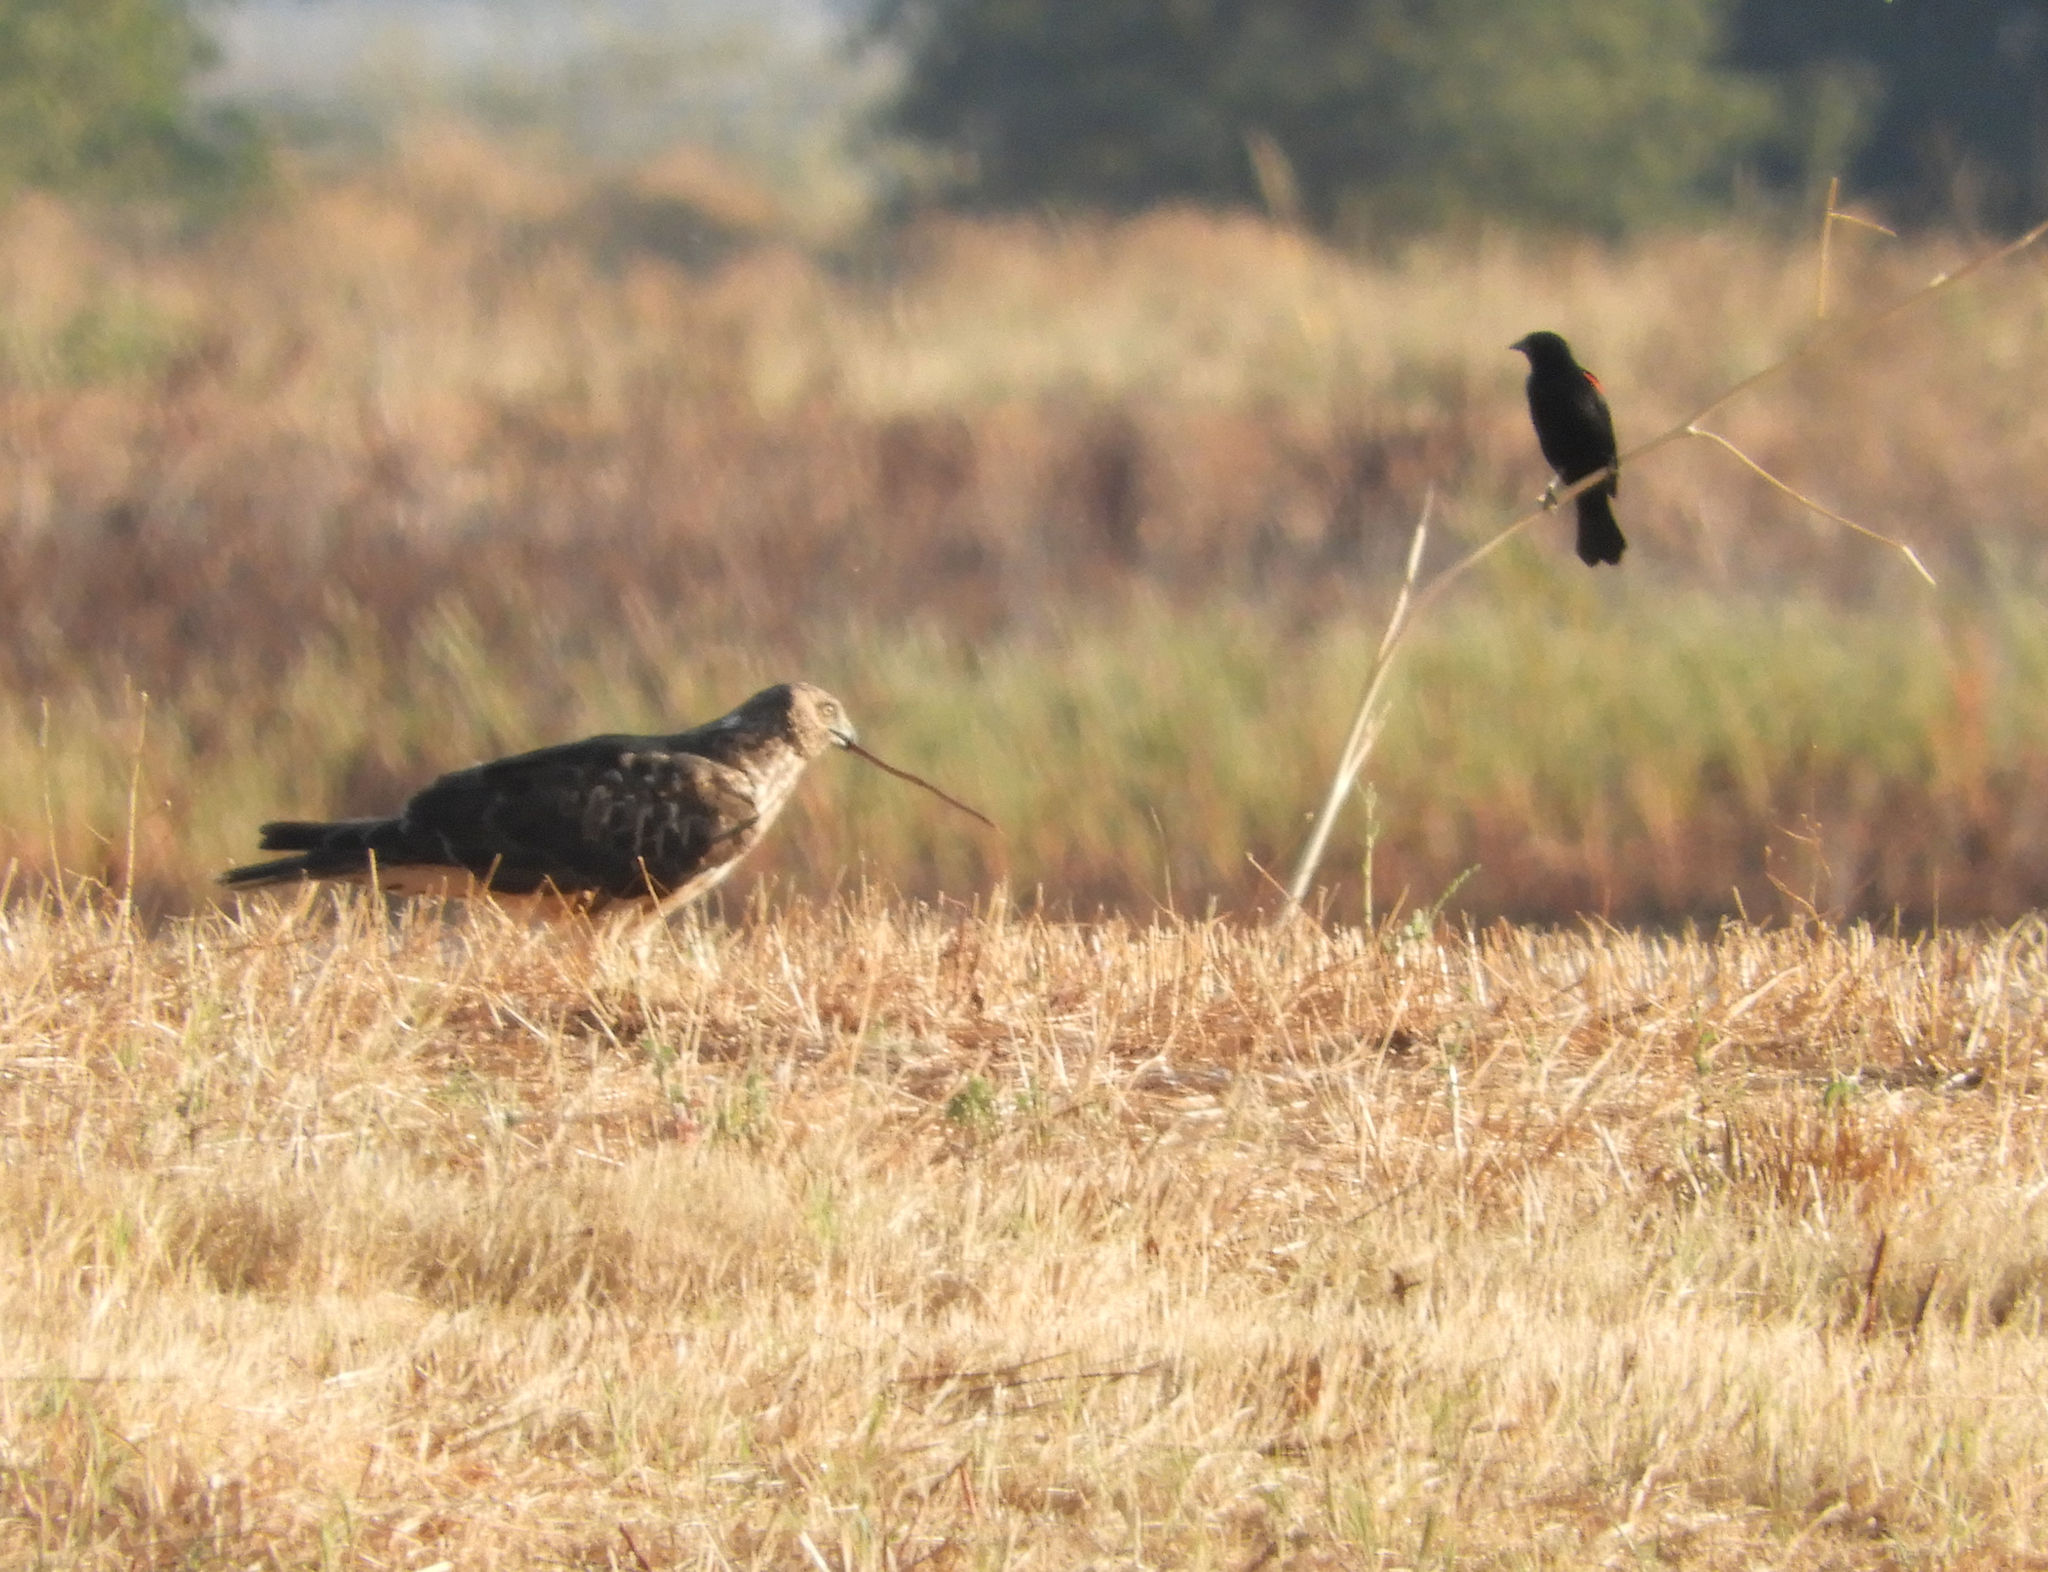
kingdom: Animalia
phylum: Chordata
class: Aves
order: Accipitriformes
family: Accipitridae
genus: Circus
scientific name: Circus cyaneus
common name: Hen harrier
